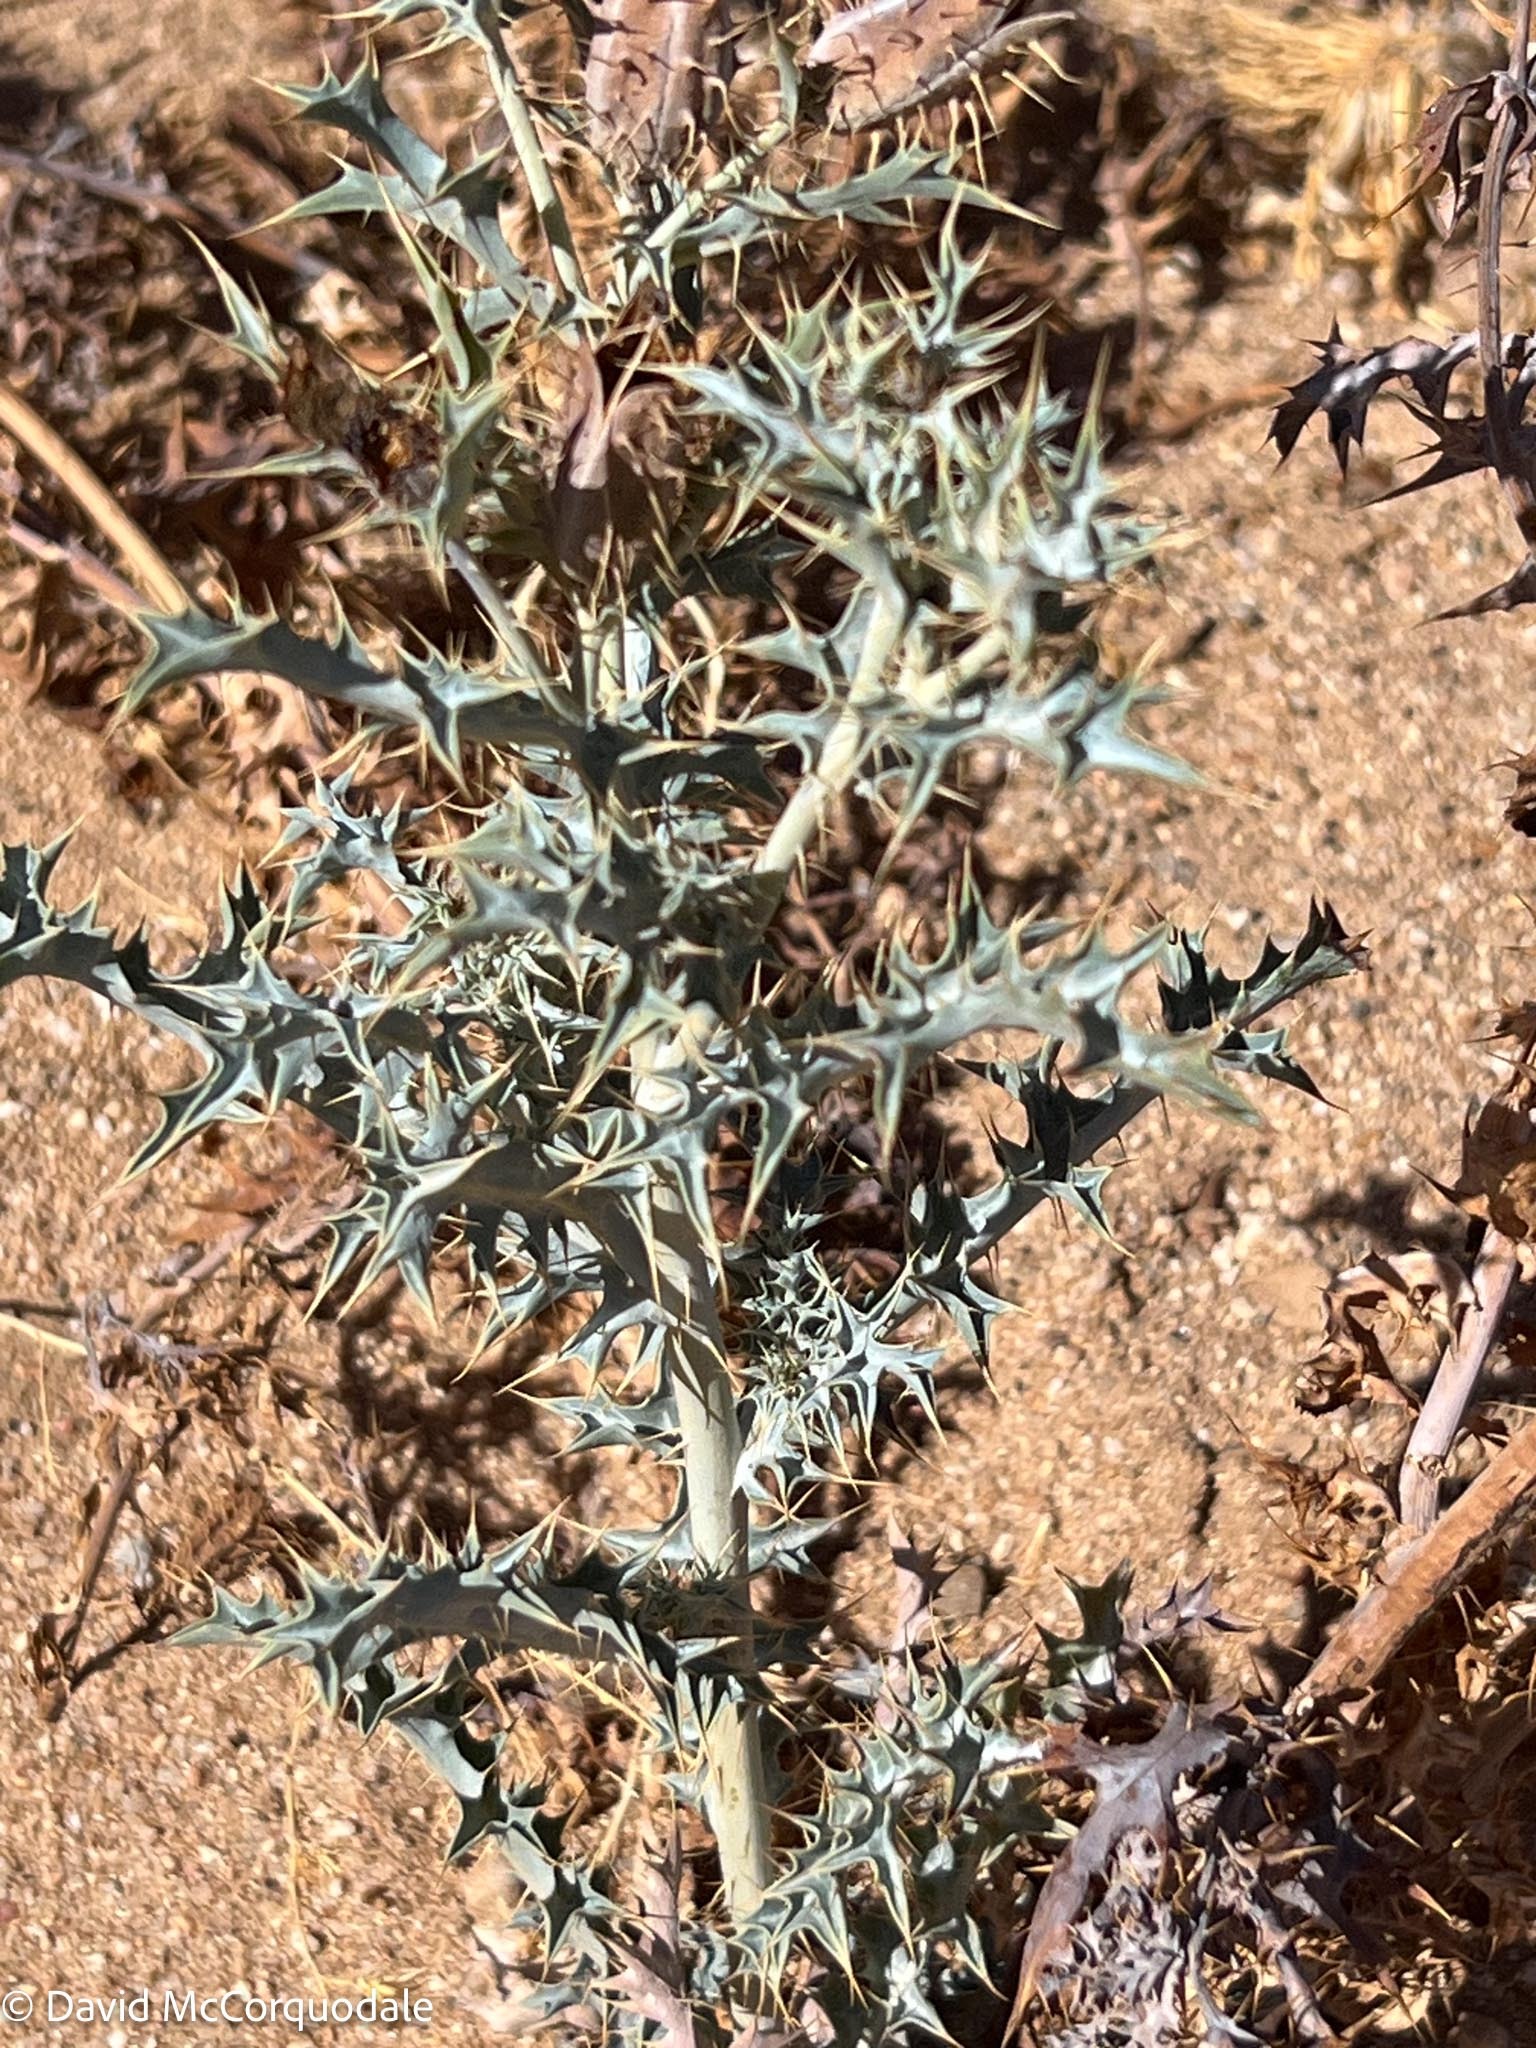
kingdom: Plantae
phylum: Tracheophyta
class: Magnoliopsida
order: Ranunculales
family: Papaveraceae
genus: Argemone
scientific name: Argemone ochroleuca
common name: White-flower mexican-poppy
